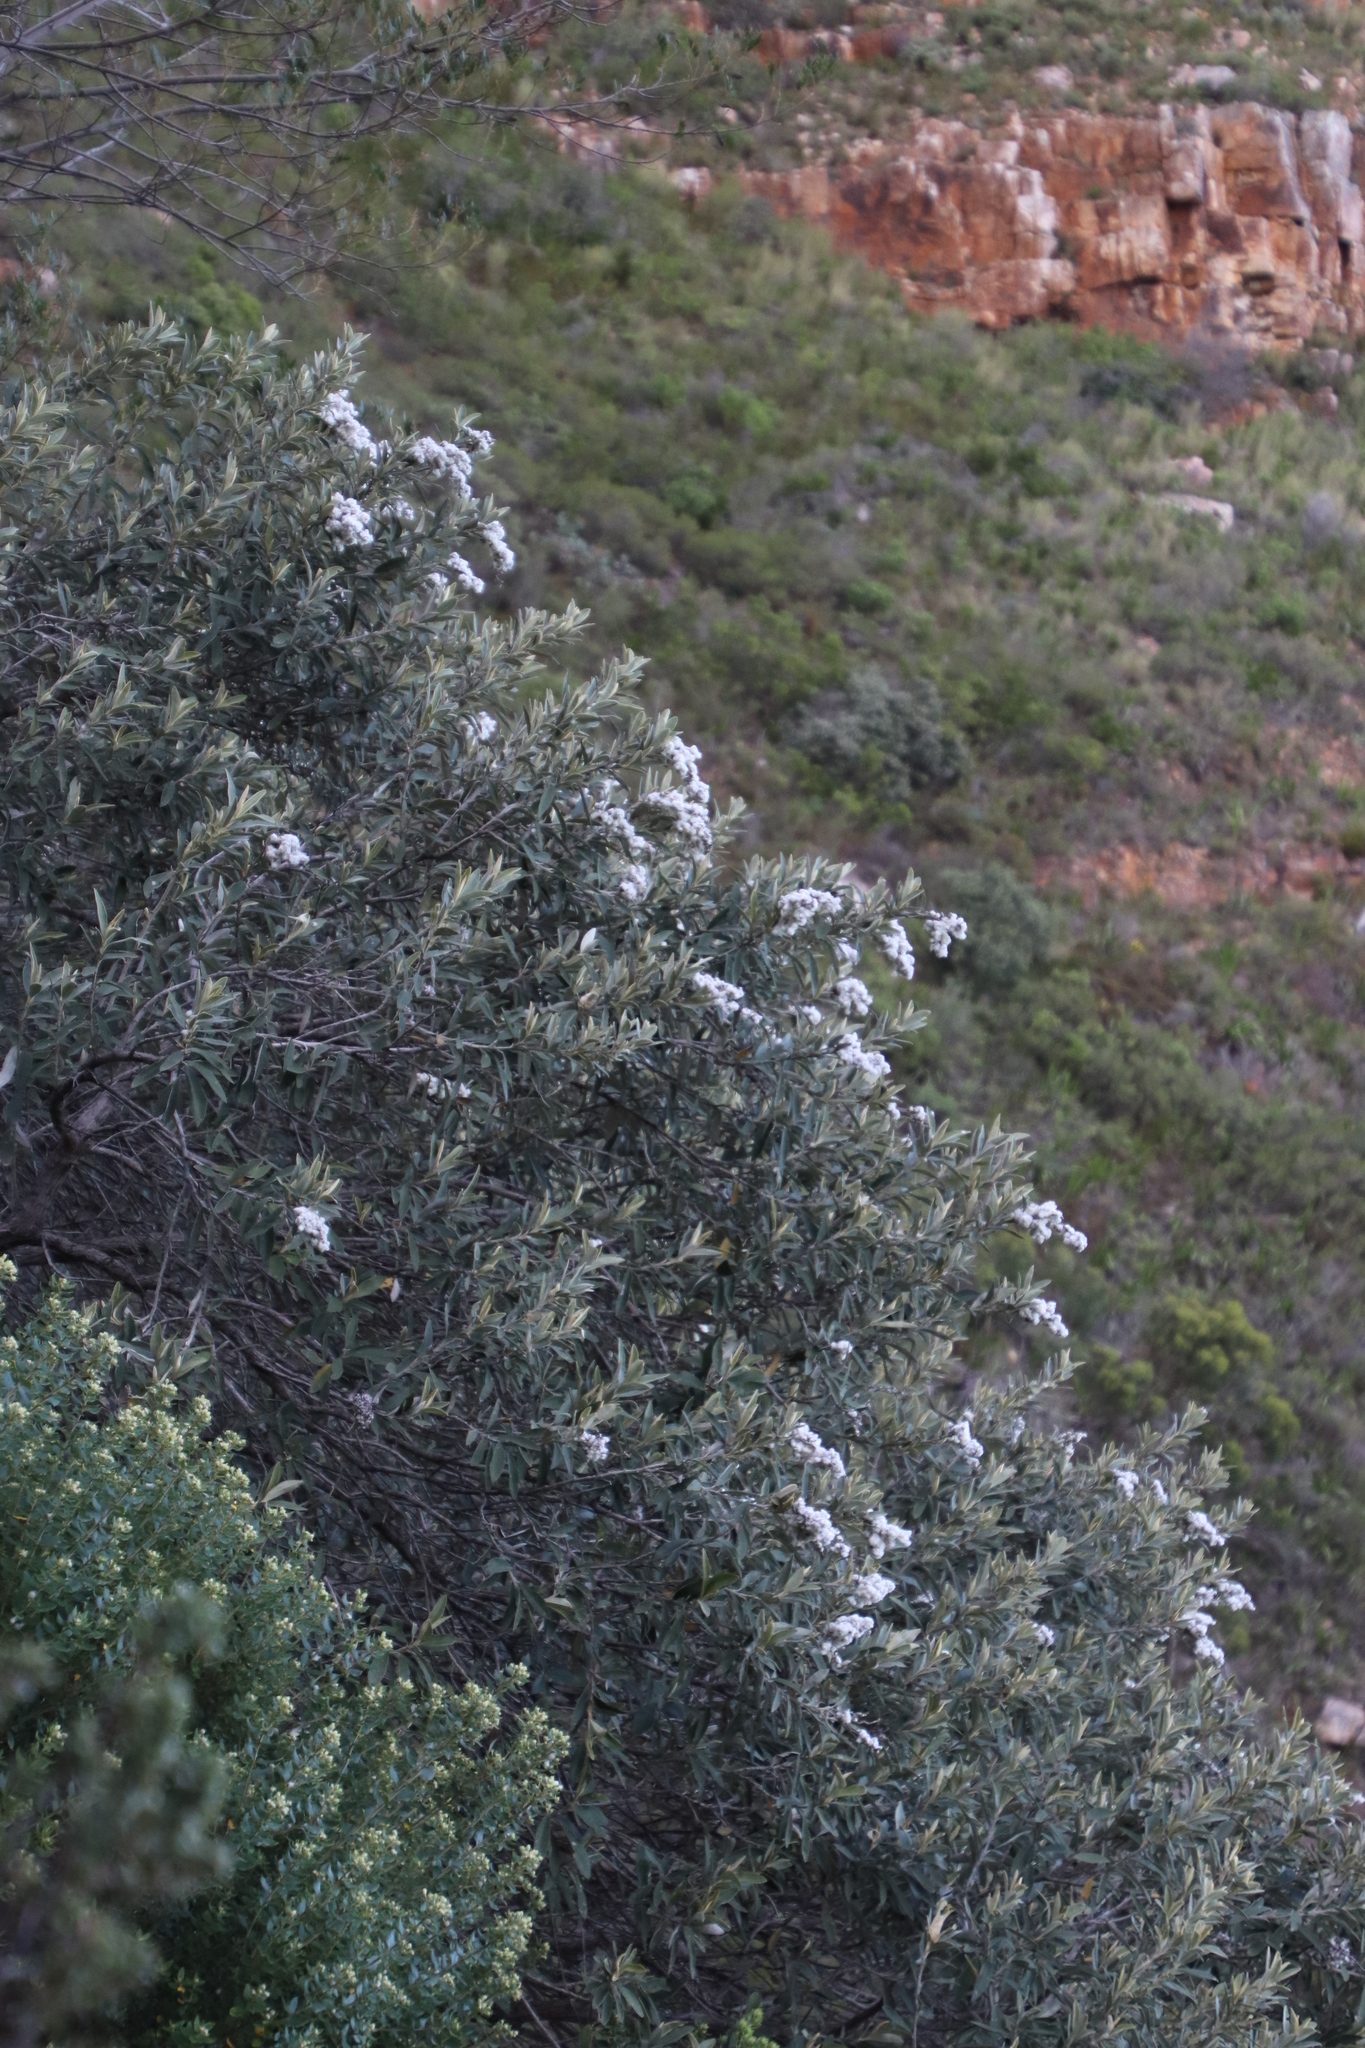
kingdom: Plantae
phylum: Tracheophyta
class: Magnoliopsida
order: Asterales
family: Asteraceae
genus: Tarchonanthus
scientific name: Tarchonanthus littoralis
